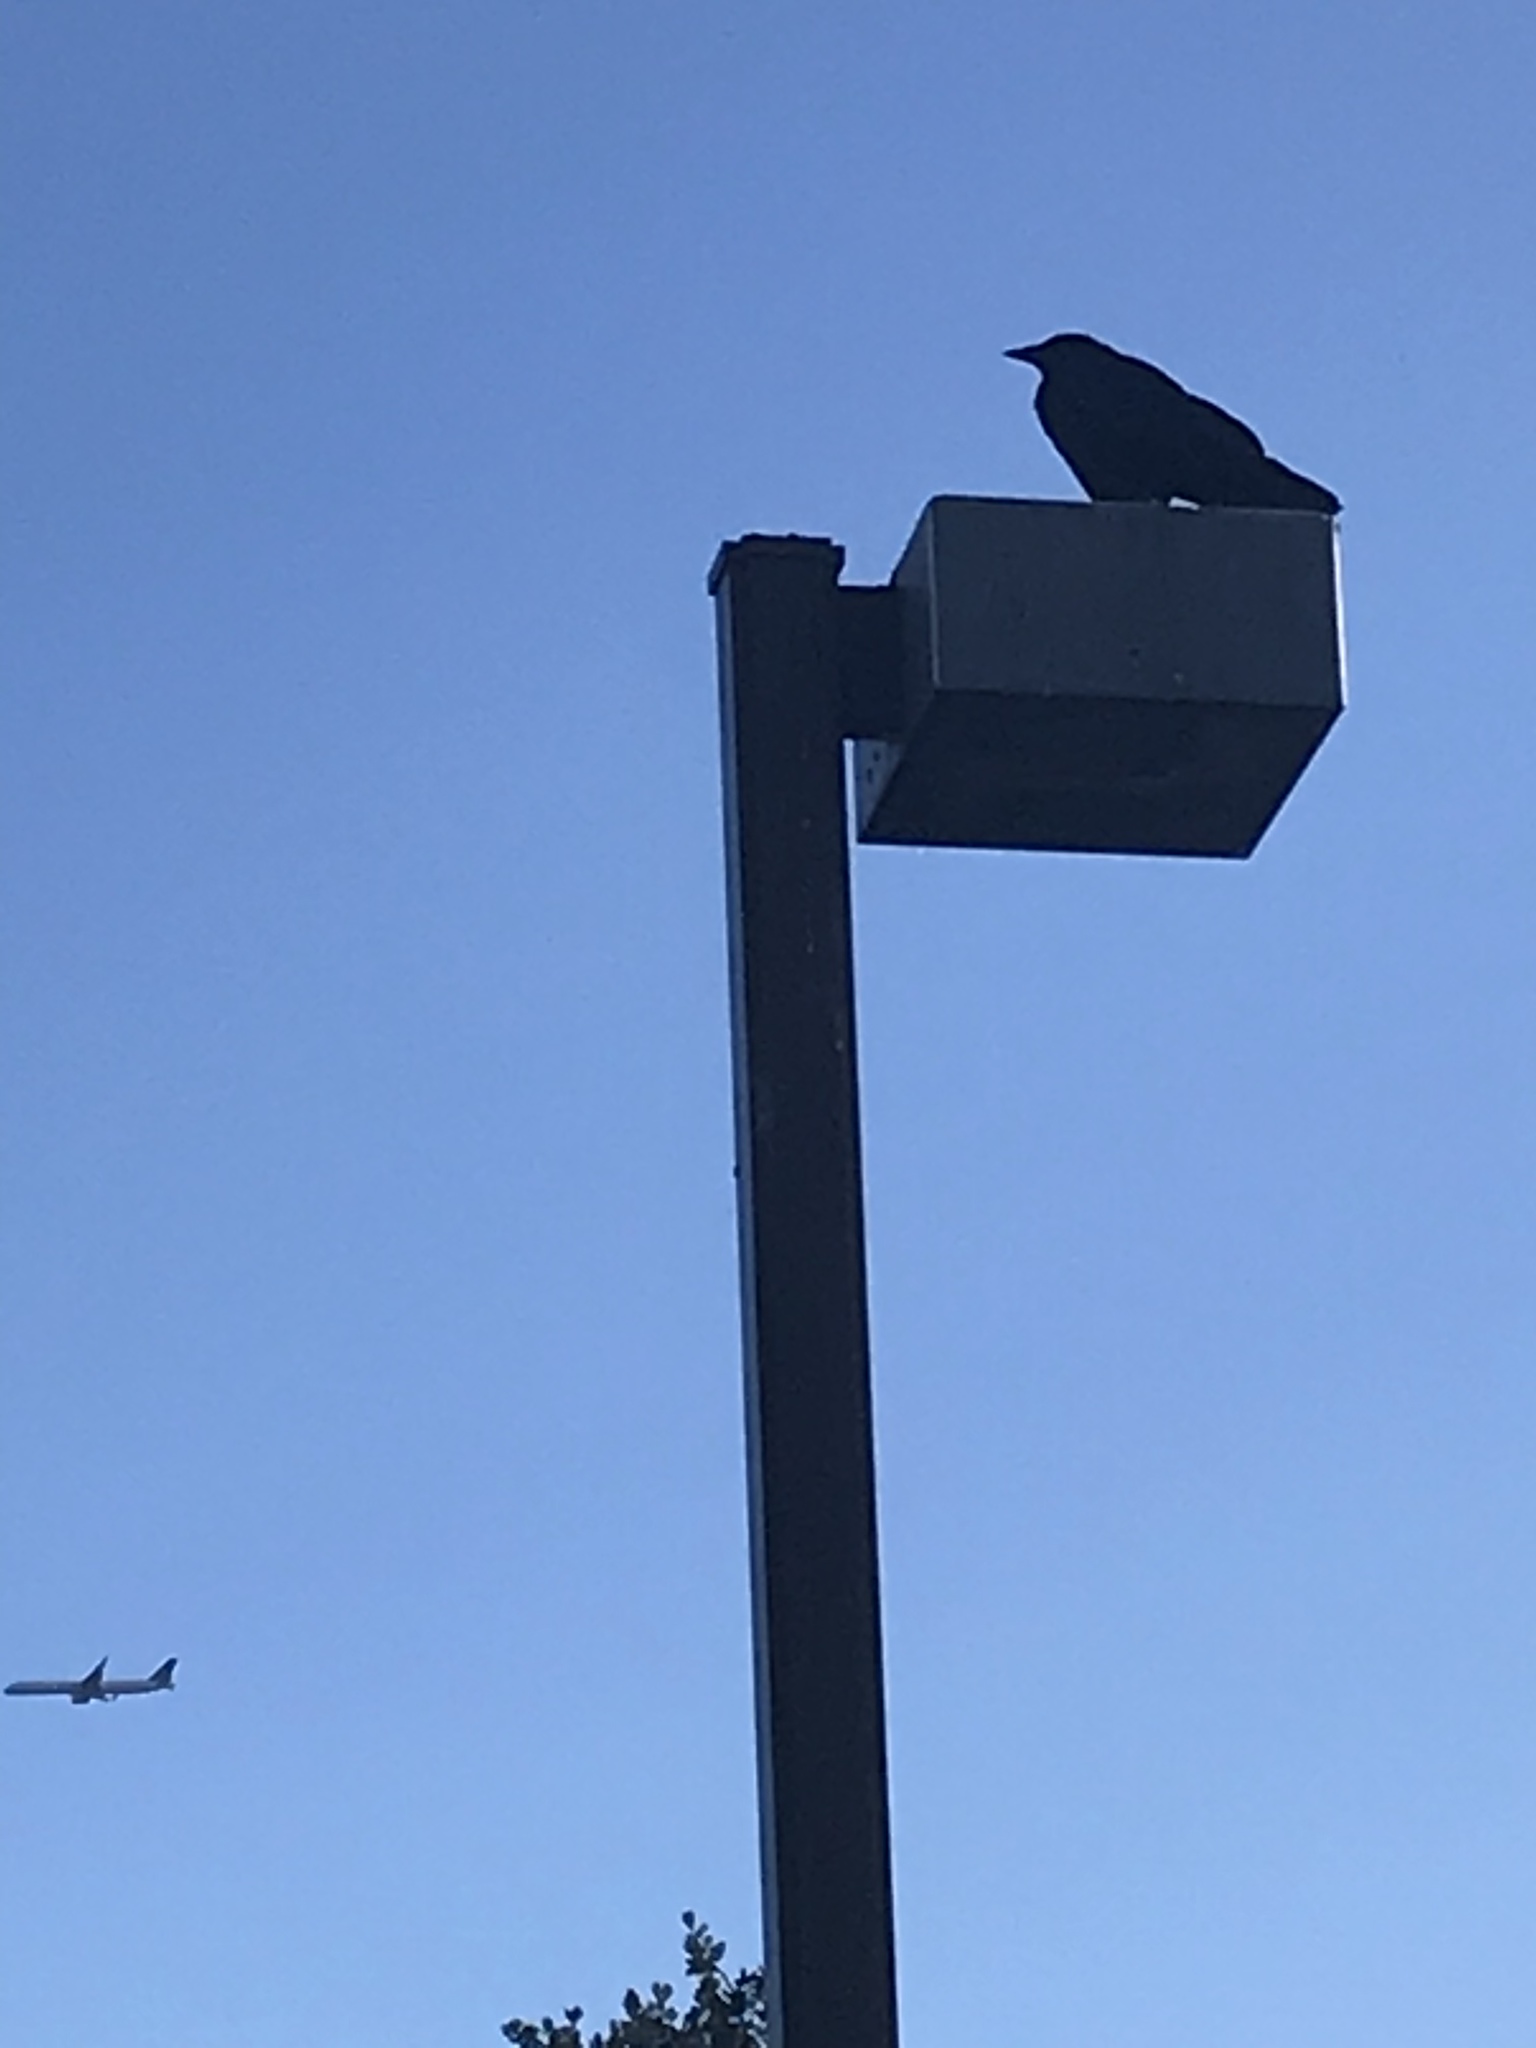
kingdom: Animalia
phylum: Chordata
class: Aves
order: Passeriformes
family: Corvidae
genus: Corvus
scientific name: Corvus brachyrhynchos
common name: American crow
